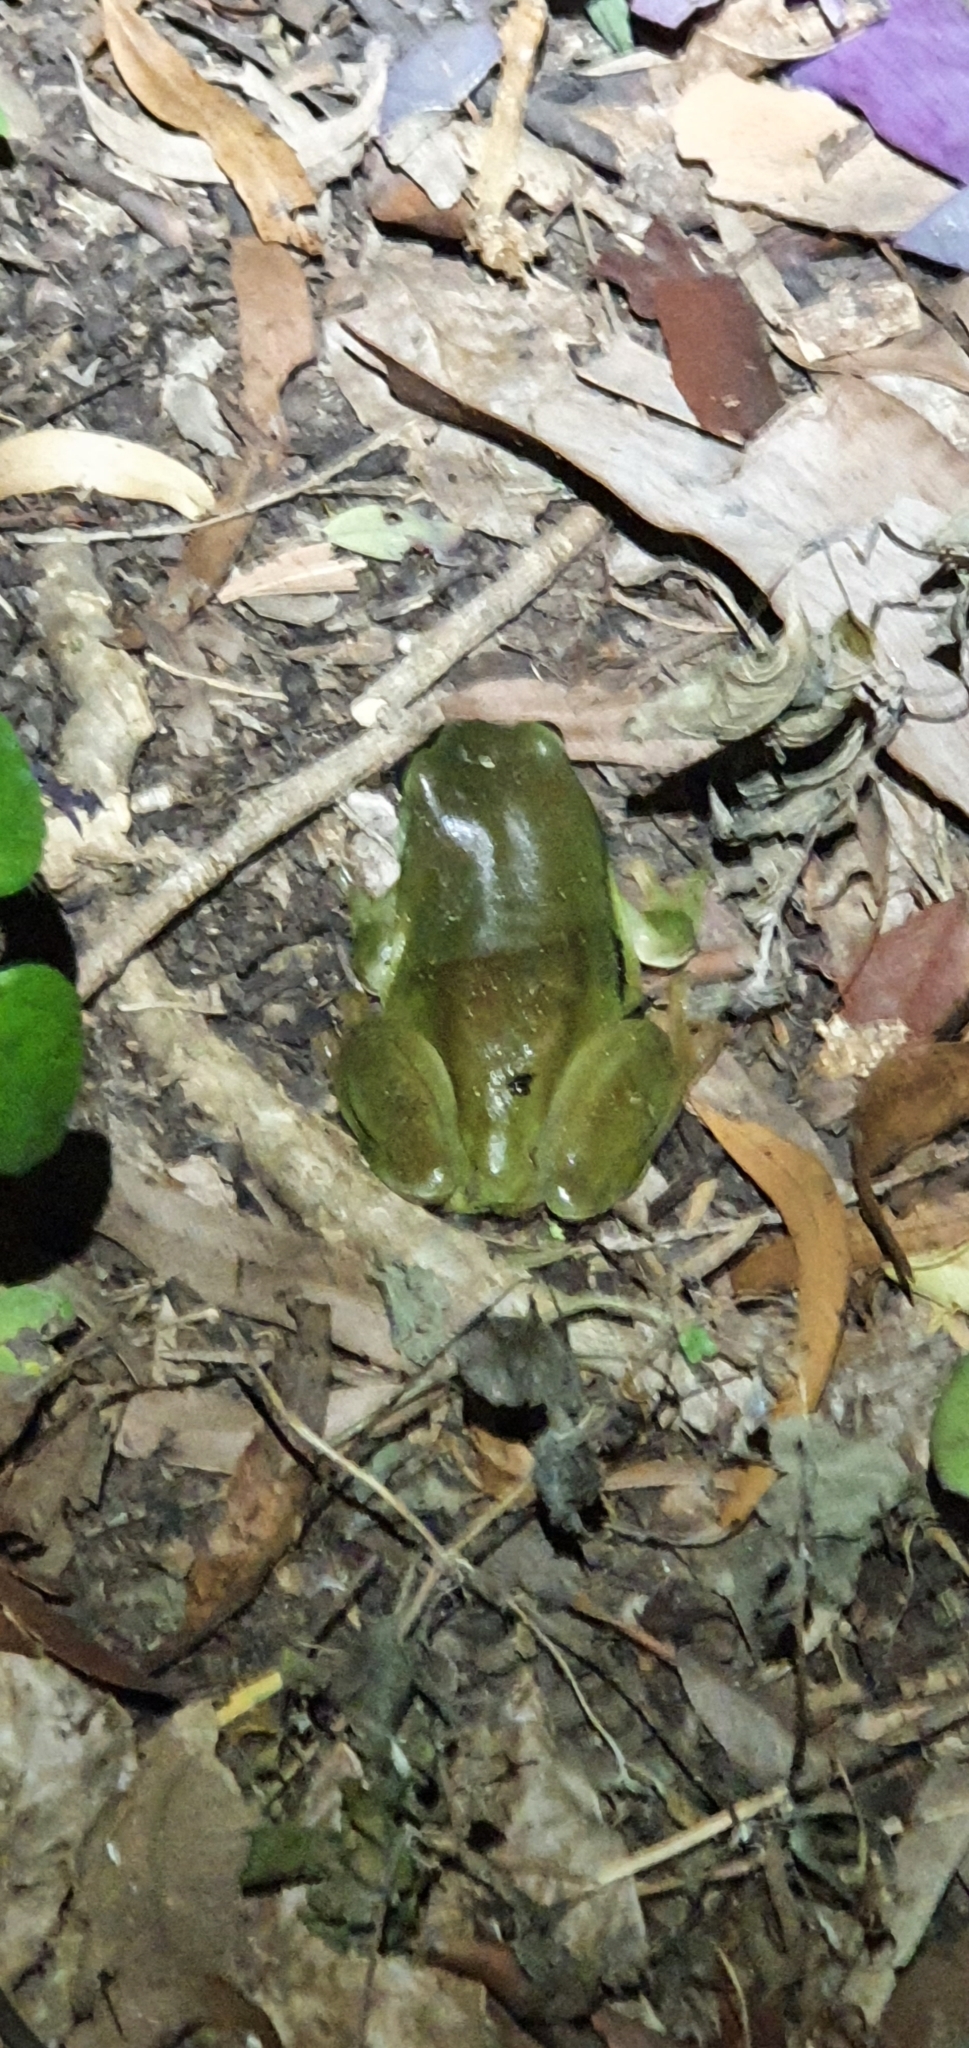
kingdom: Animalia
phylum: Chordata
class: Amphibia
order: Anura
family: Pelodryadidae
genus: Ranoidea
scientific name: Ranoidea caerulea
